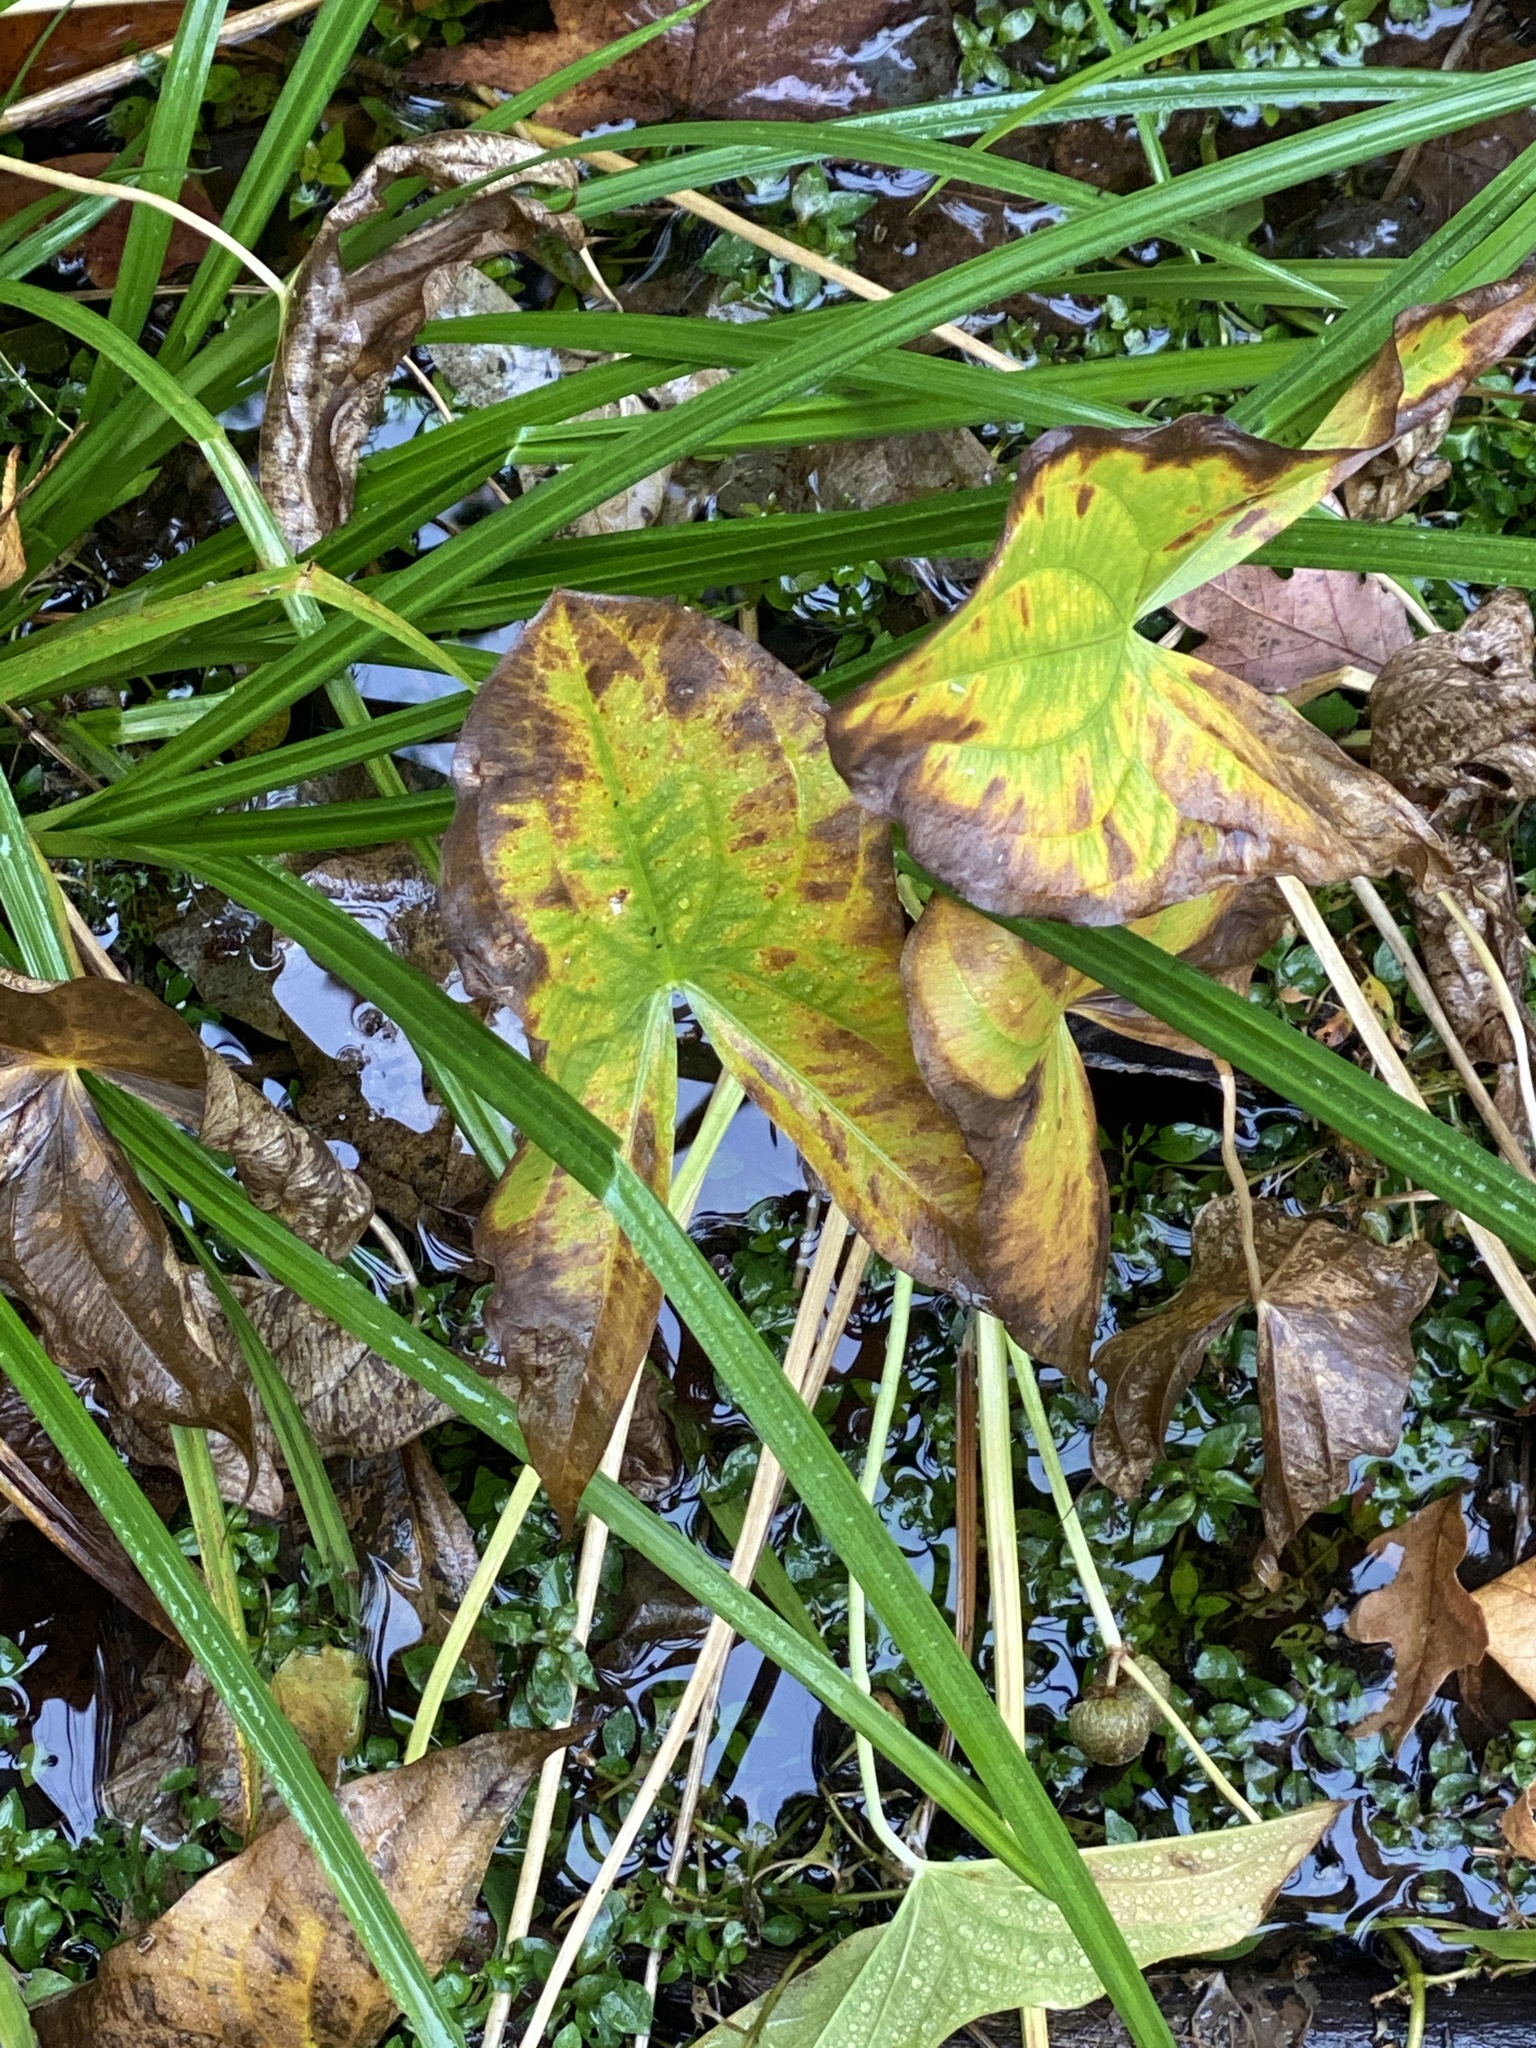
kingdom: Plantae
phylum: Tracheophyta
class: Liliopsida
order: Alismatales
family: Alismataceae
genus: Sagittaria
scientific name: Sagittaria latifolia
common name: Duck-potato
